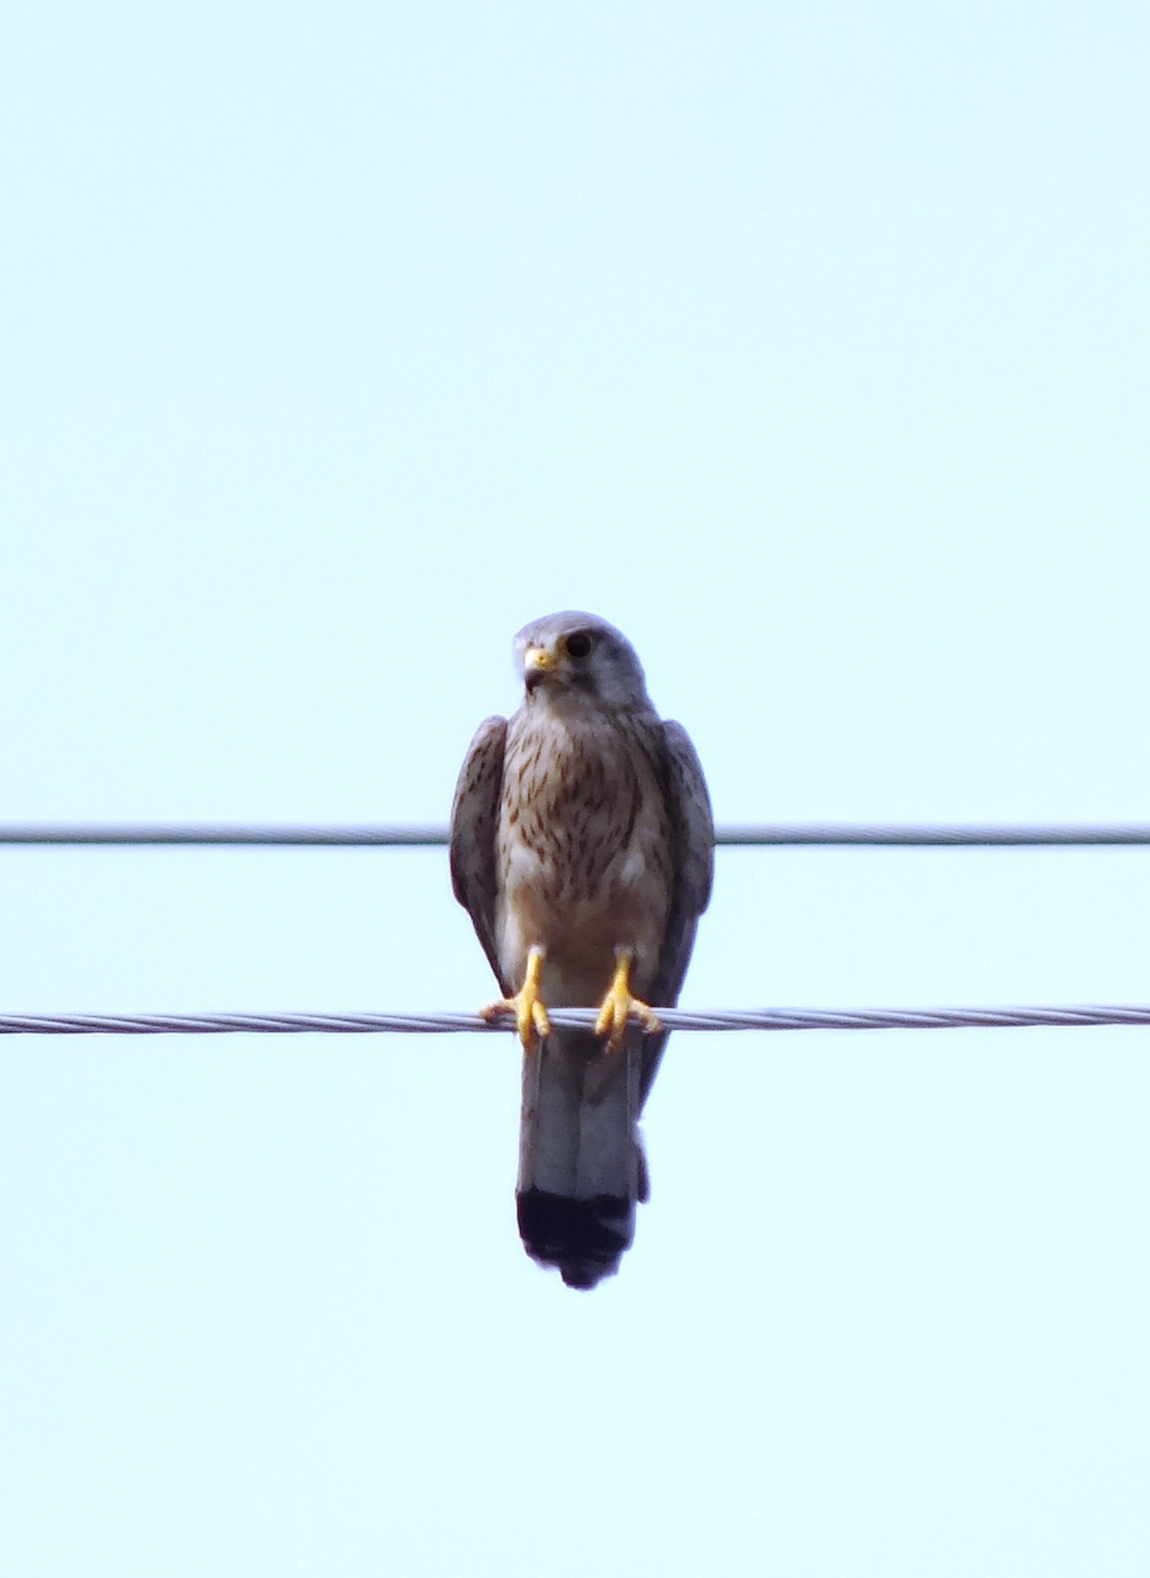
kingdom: Animalia
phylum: Chordata
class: Aves
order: Falconiformes
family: Falconidae
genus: Falco
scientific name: Falco tinnunculus
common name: Common kestrel
